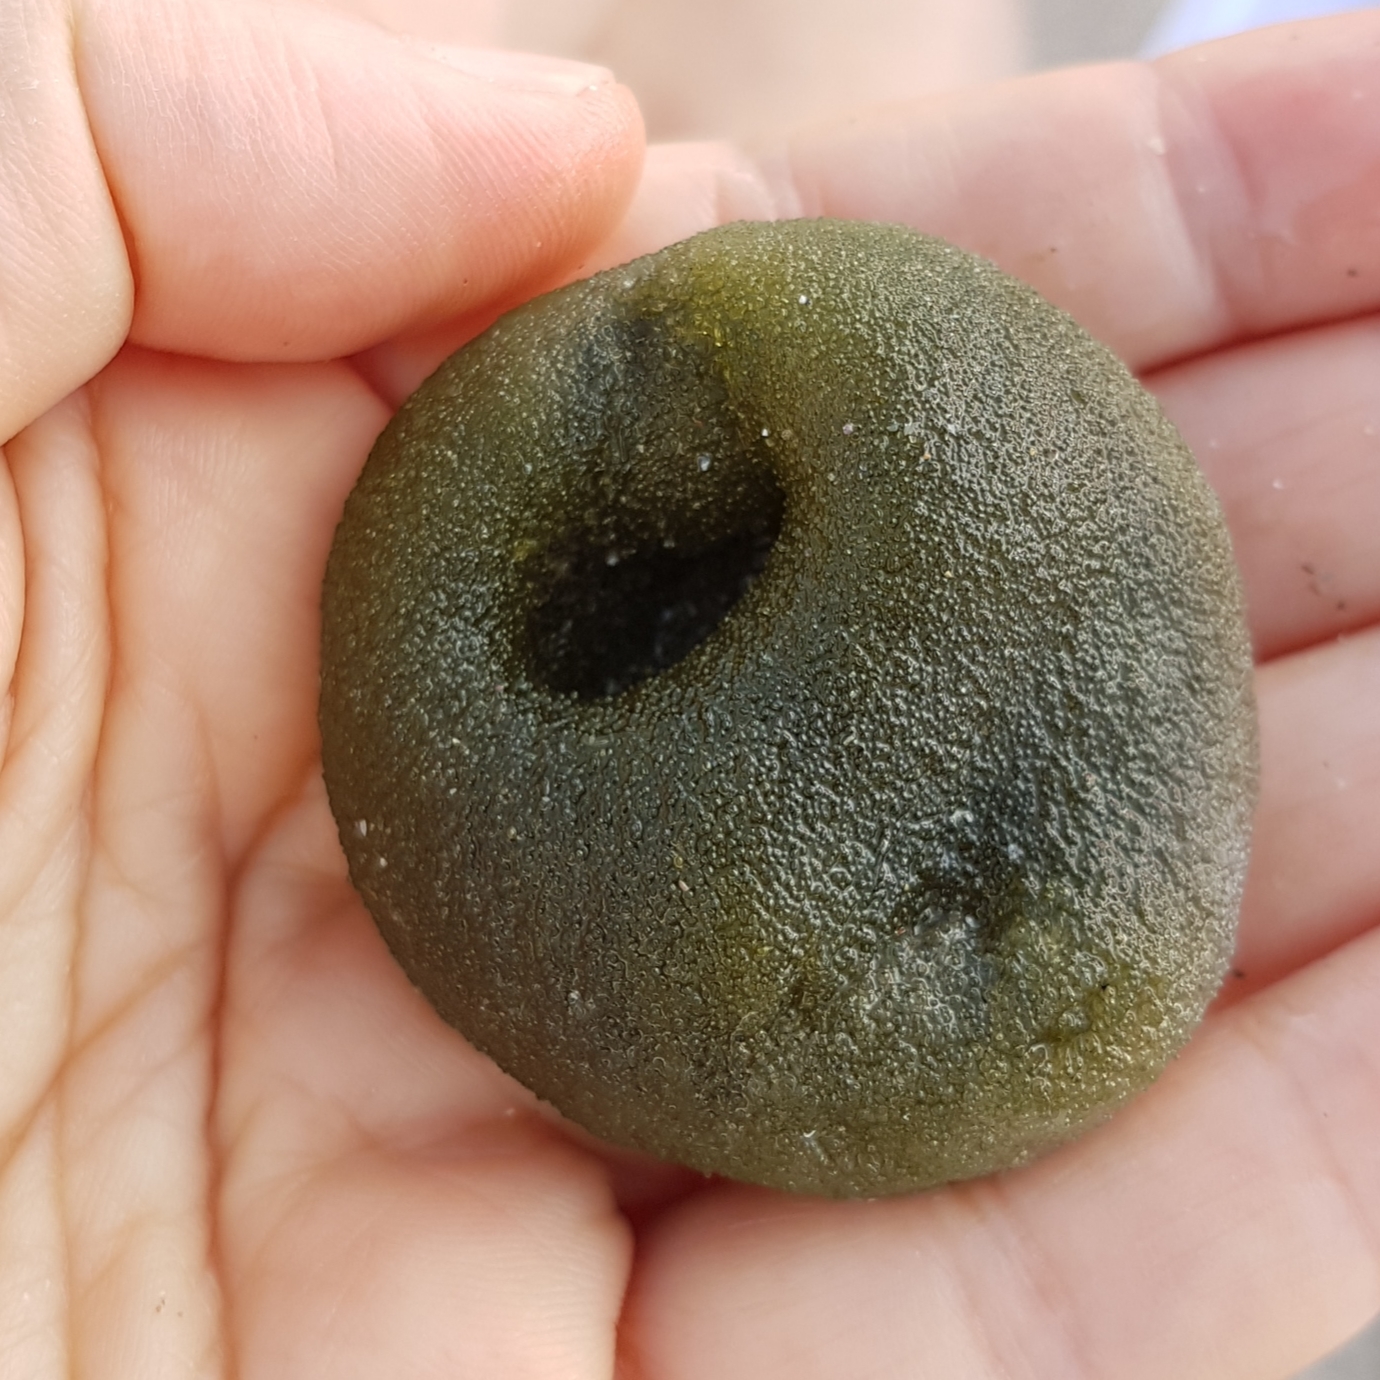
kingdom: Plantae
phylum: Chlorophyta
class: Ulvophyceae
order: Bryopsidales
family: Codiaceae
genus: Codium
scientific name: Codium bursa
